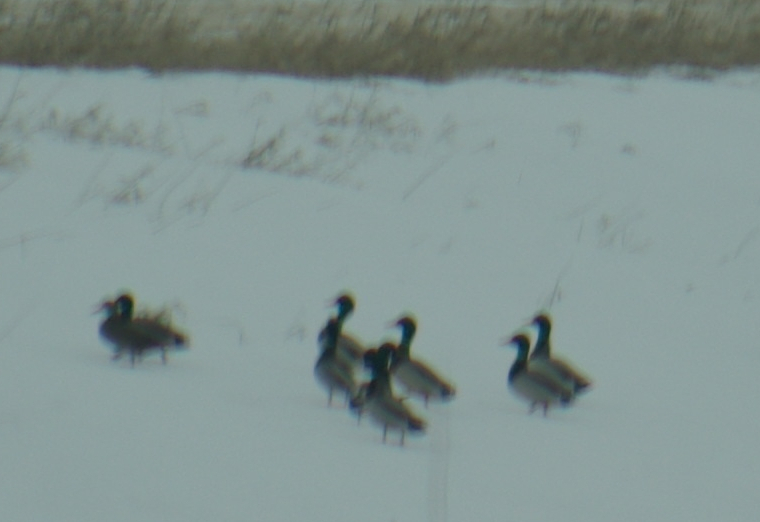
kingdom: Animalia
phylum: Chordata
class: Aves
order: Anseriformes
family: Anatidae
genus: Anas
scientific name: Anas platyrhynchos
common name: Mallard
